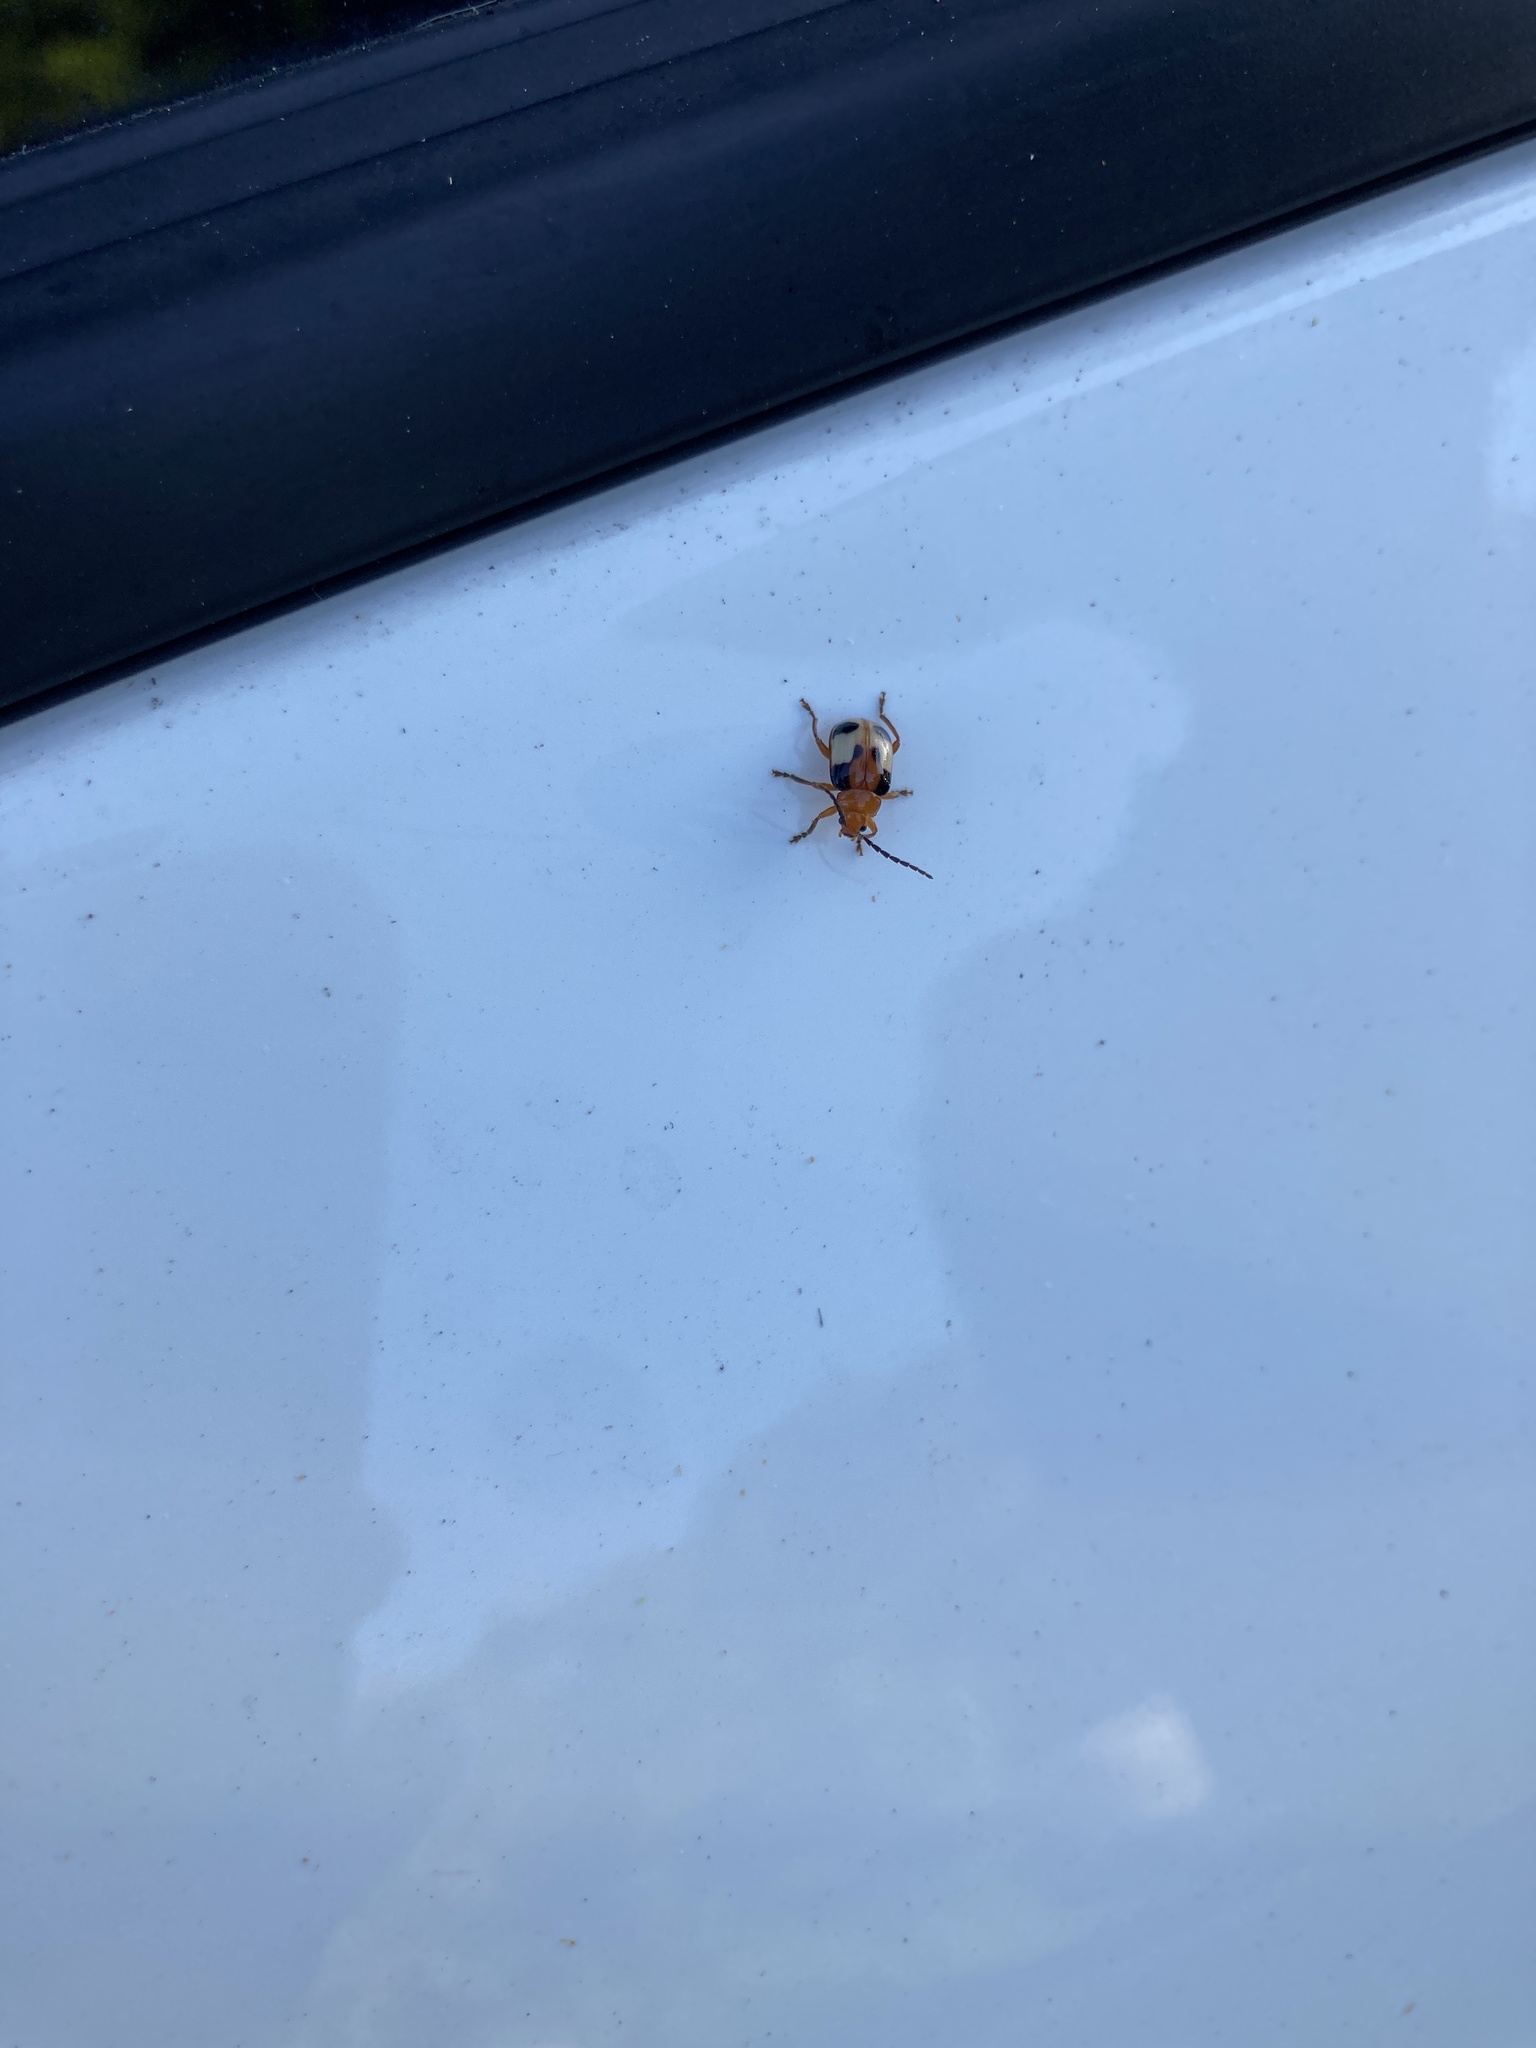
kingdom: Animalia
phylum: Arthropoda
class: Insecta
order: Coleoptera
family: Chrysomelidae
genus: Gallerucida
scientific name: Gallerucida sauteri
